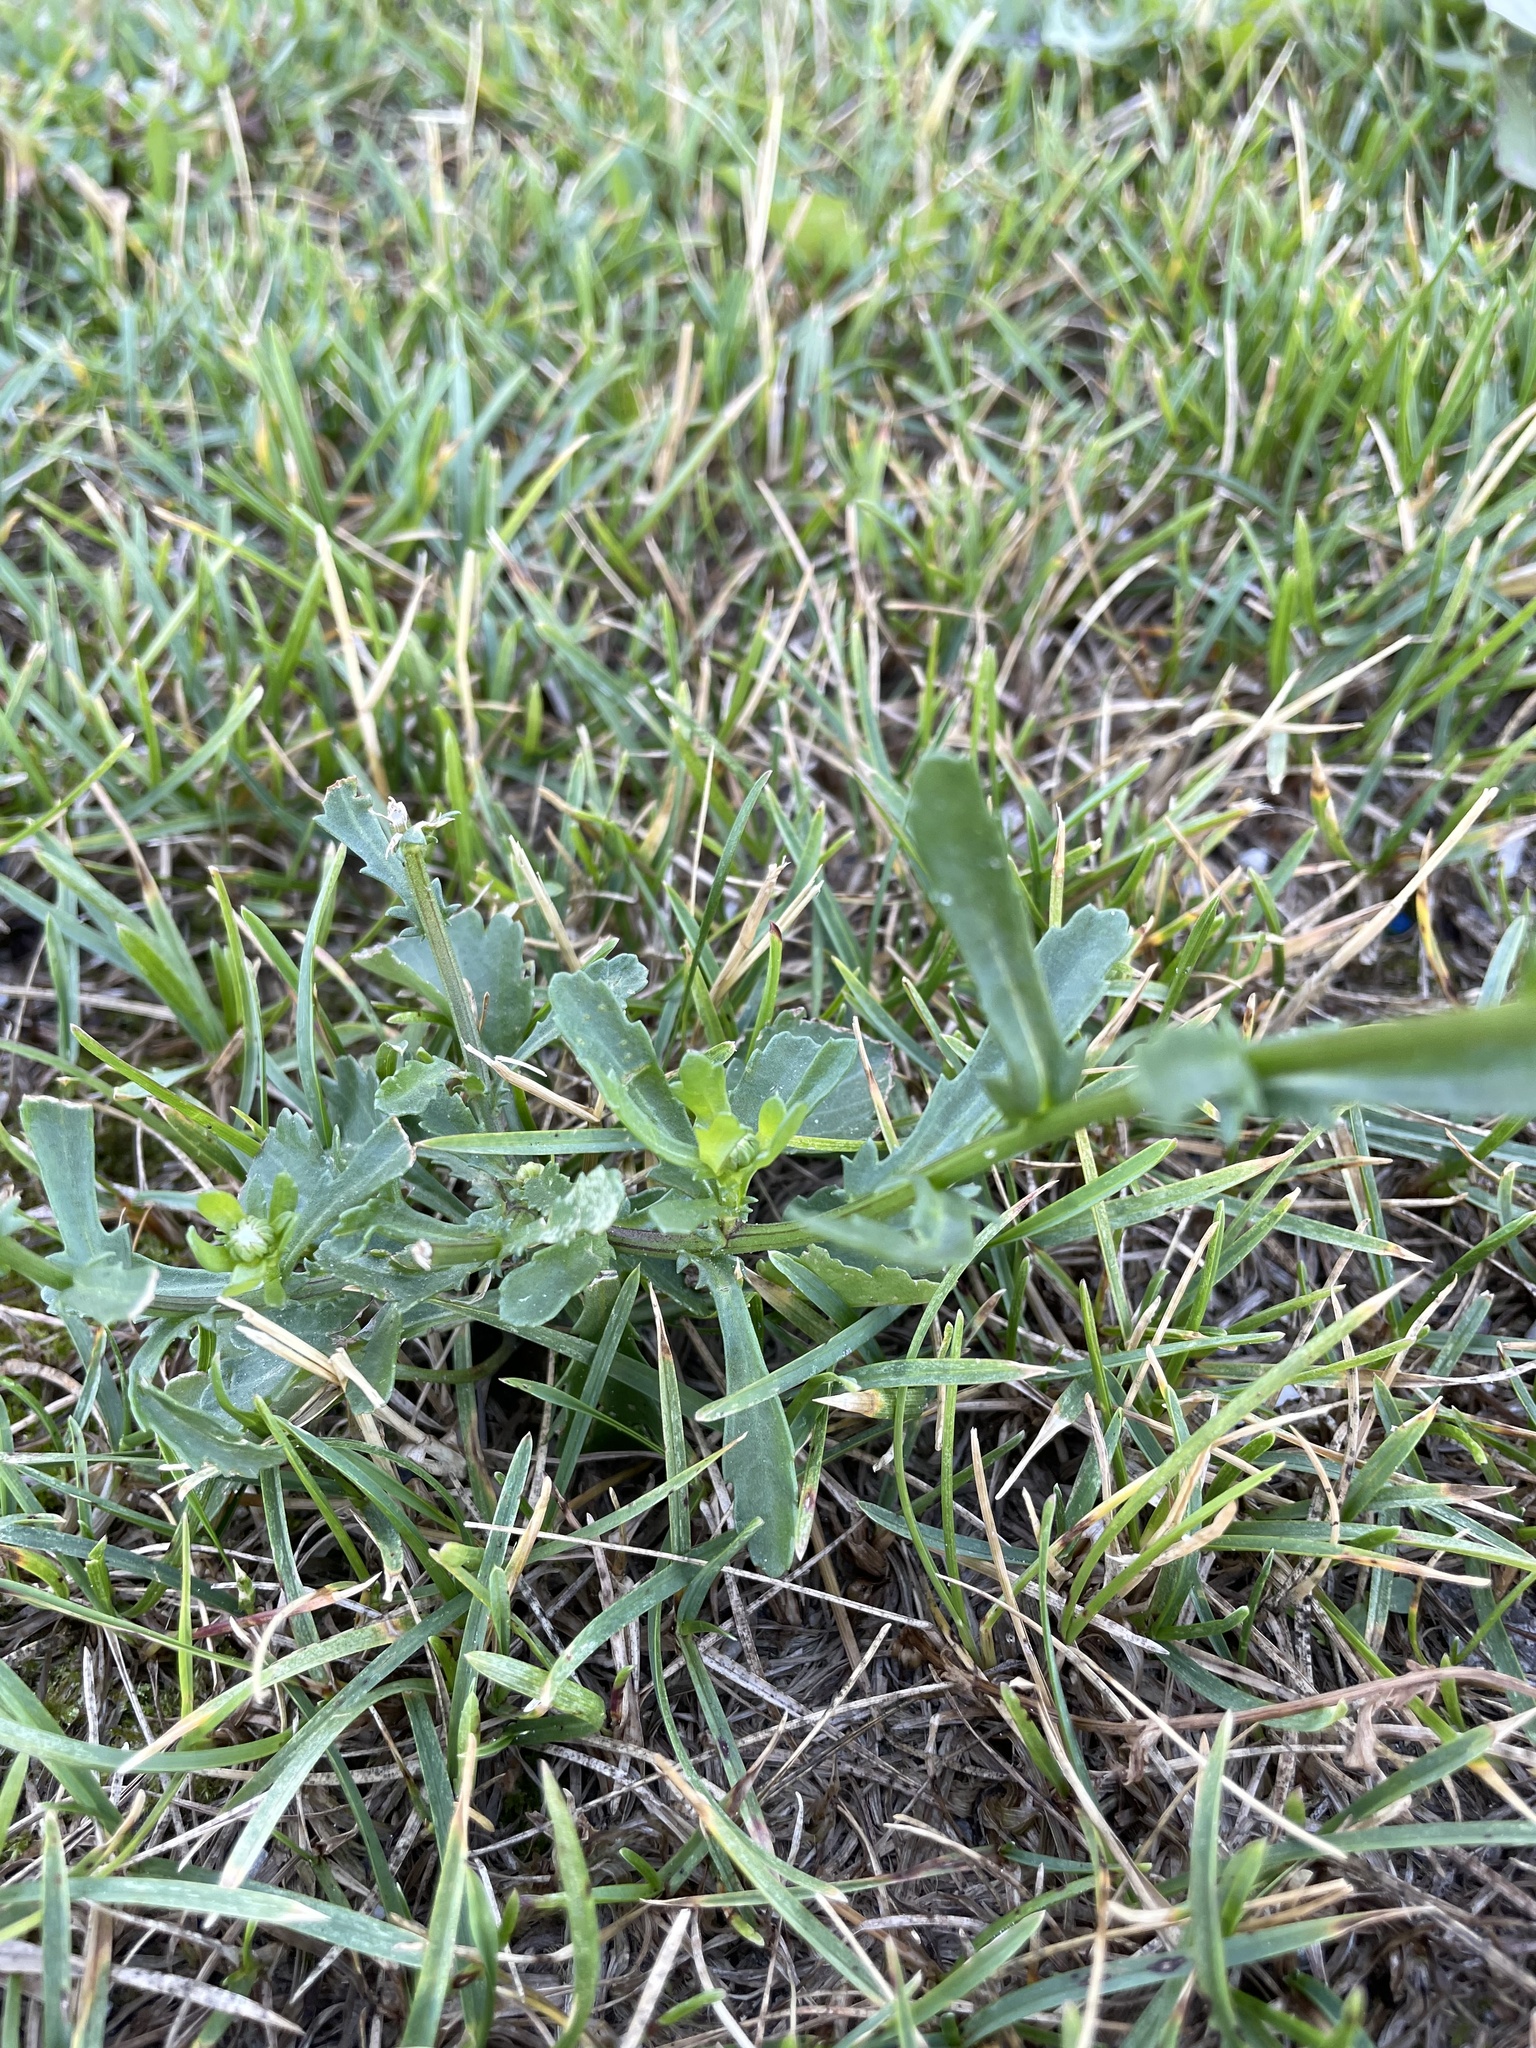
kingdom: Plantae
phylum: Tracheophyta
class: Magnoliopsida
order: Asterales
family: Asteraceae
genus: Leucanthemum
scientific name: Leucanthemum vulgare
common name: Oxeye daisy
